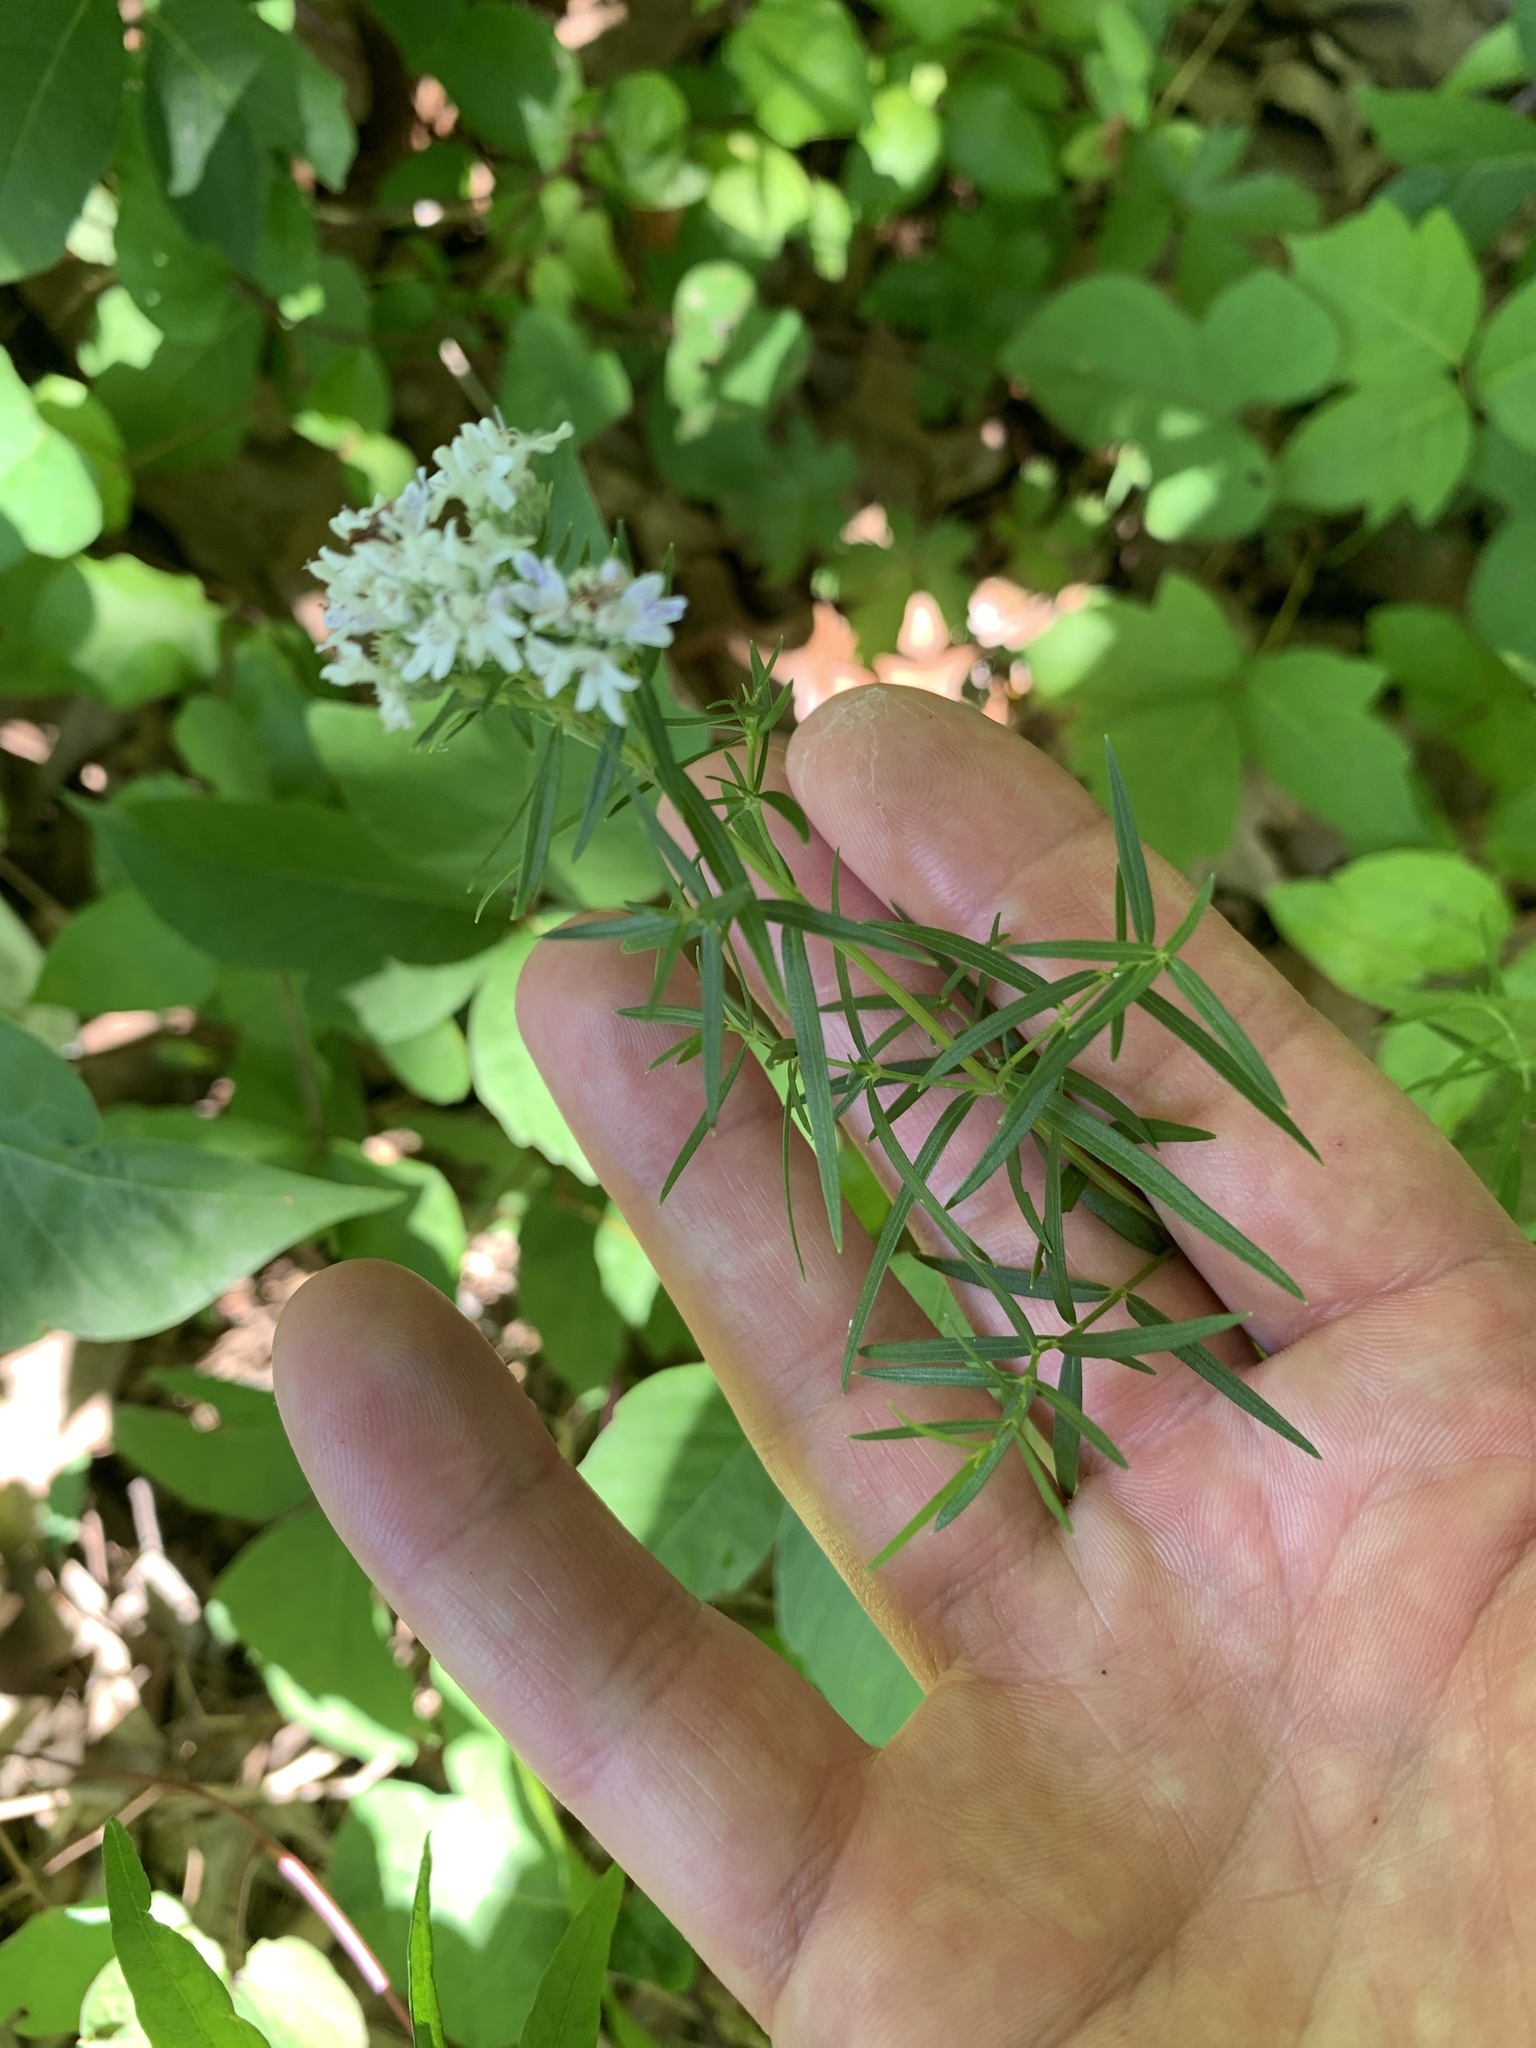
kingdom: Plantae
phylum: Tracheophyta
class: Magnoliopsida
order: Lamiales
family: Lamiaceae
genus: Pycnanthemum
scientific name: Pycnanthemum tenuifolium
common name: Narrow-leaf mountain-mint
